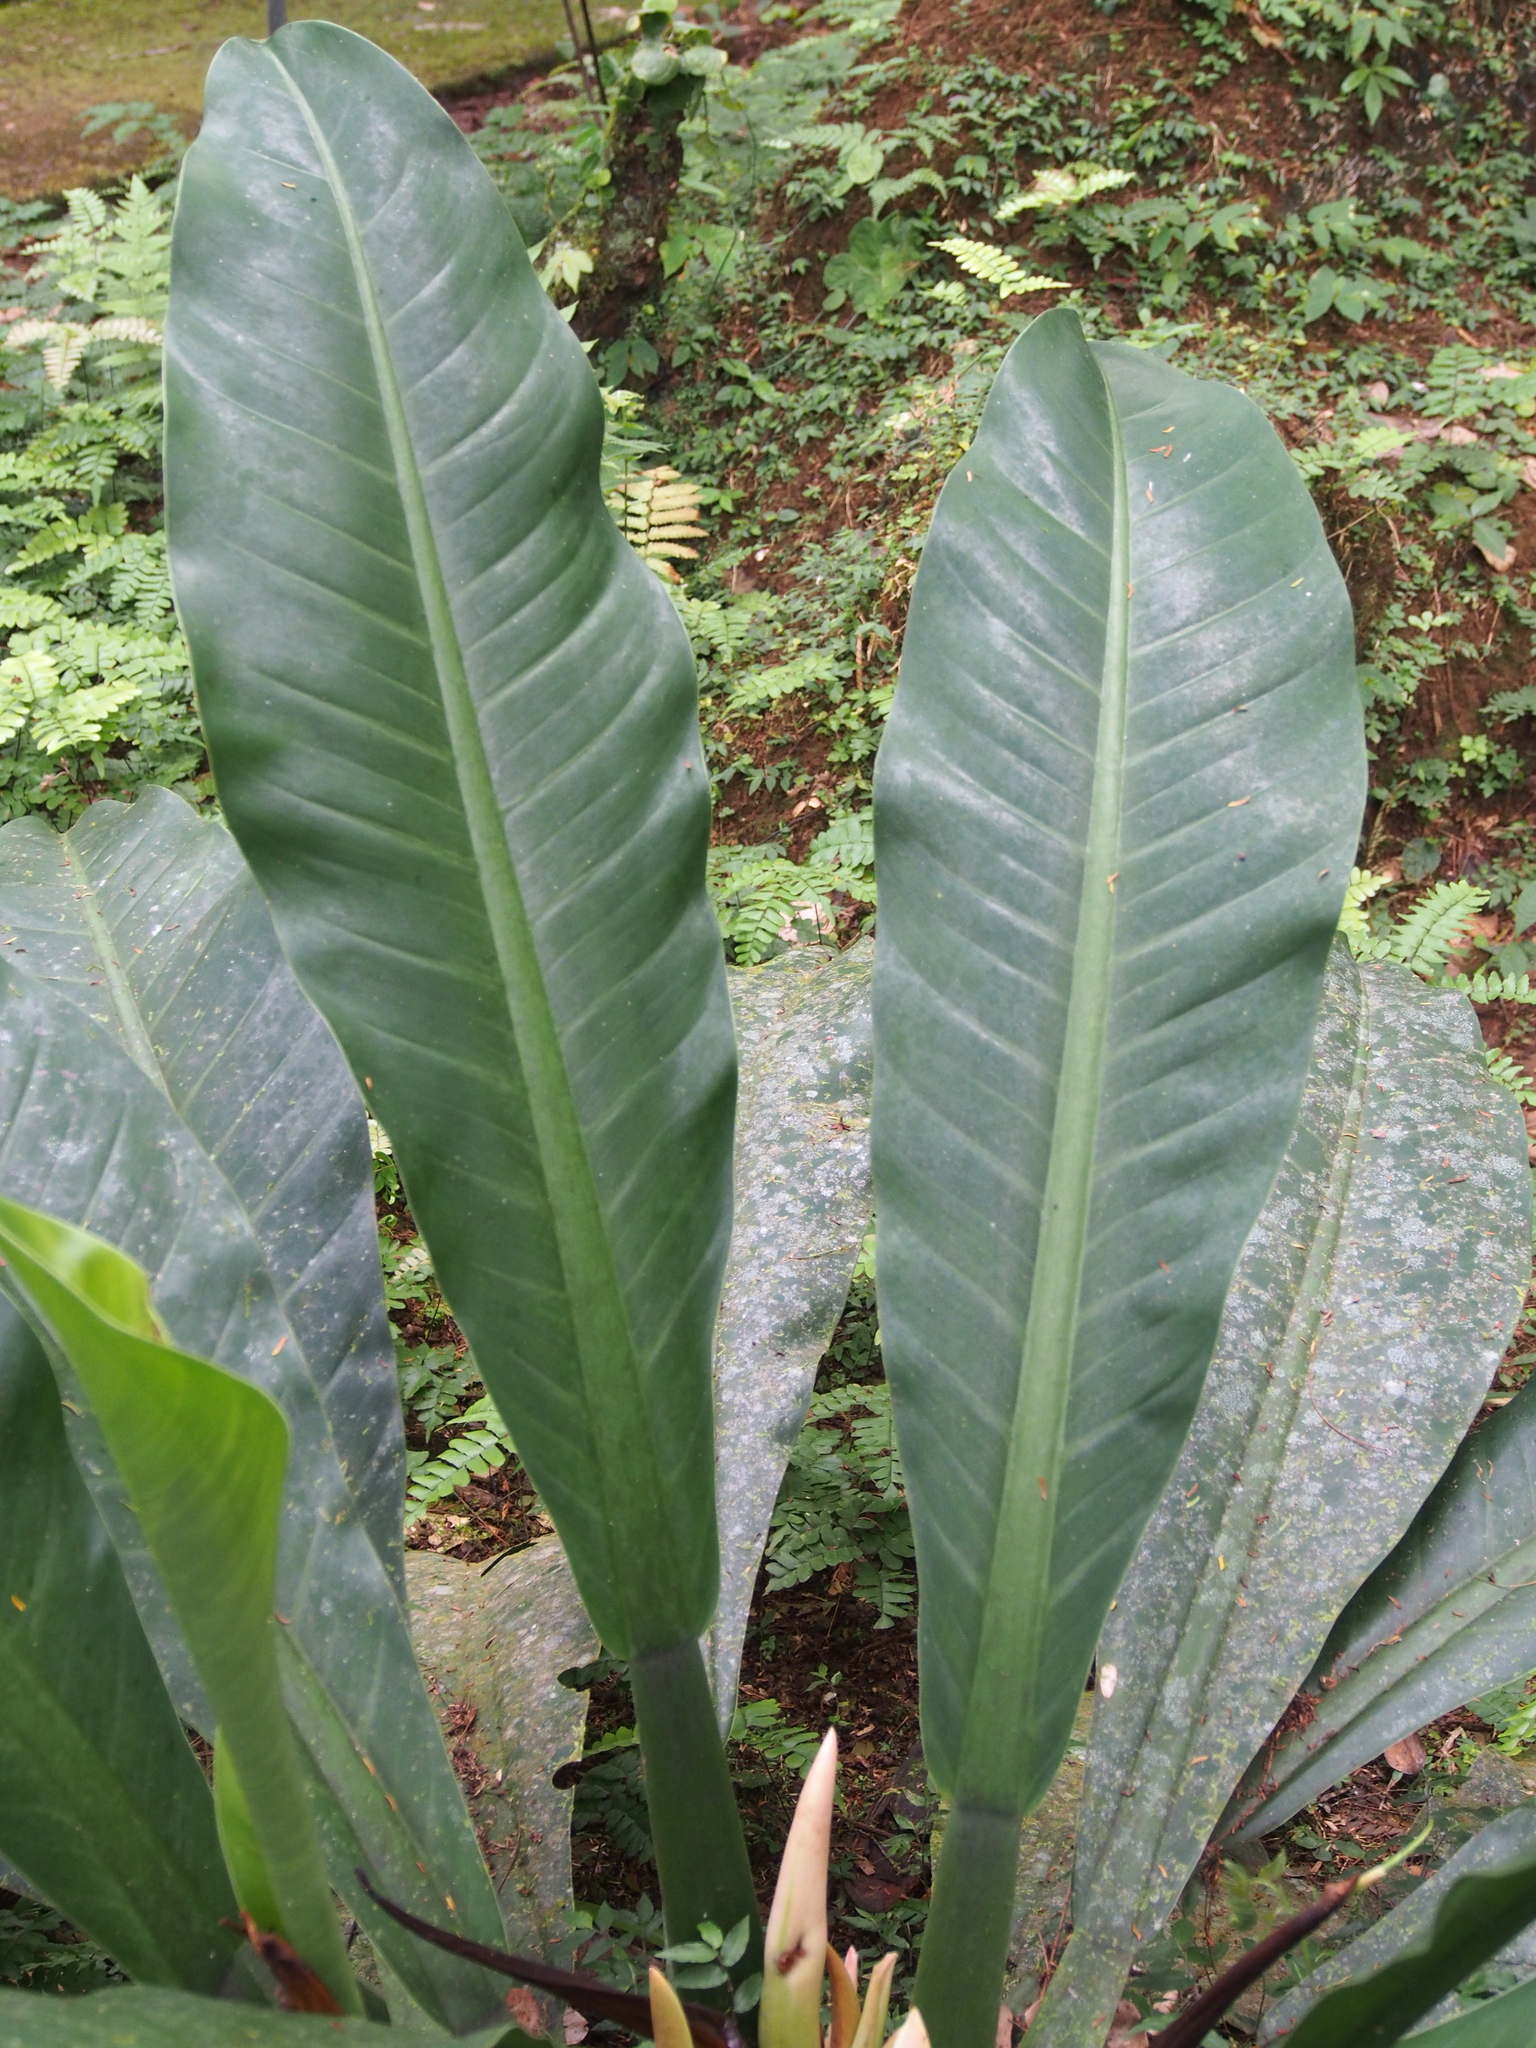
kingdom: Plantae
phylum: Tracheophyta
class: Liliopsida
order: Alismatales
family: Araceae
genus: Philodendron
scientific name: Philodendron wendlandii
